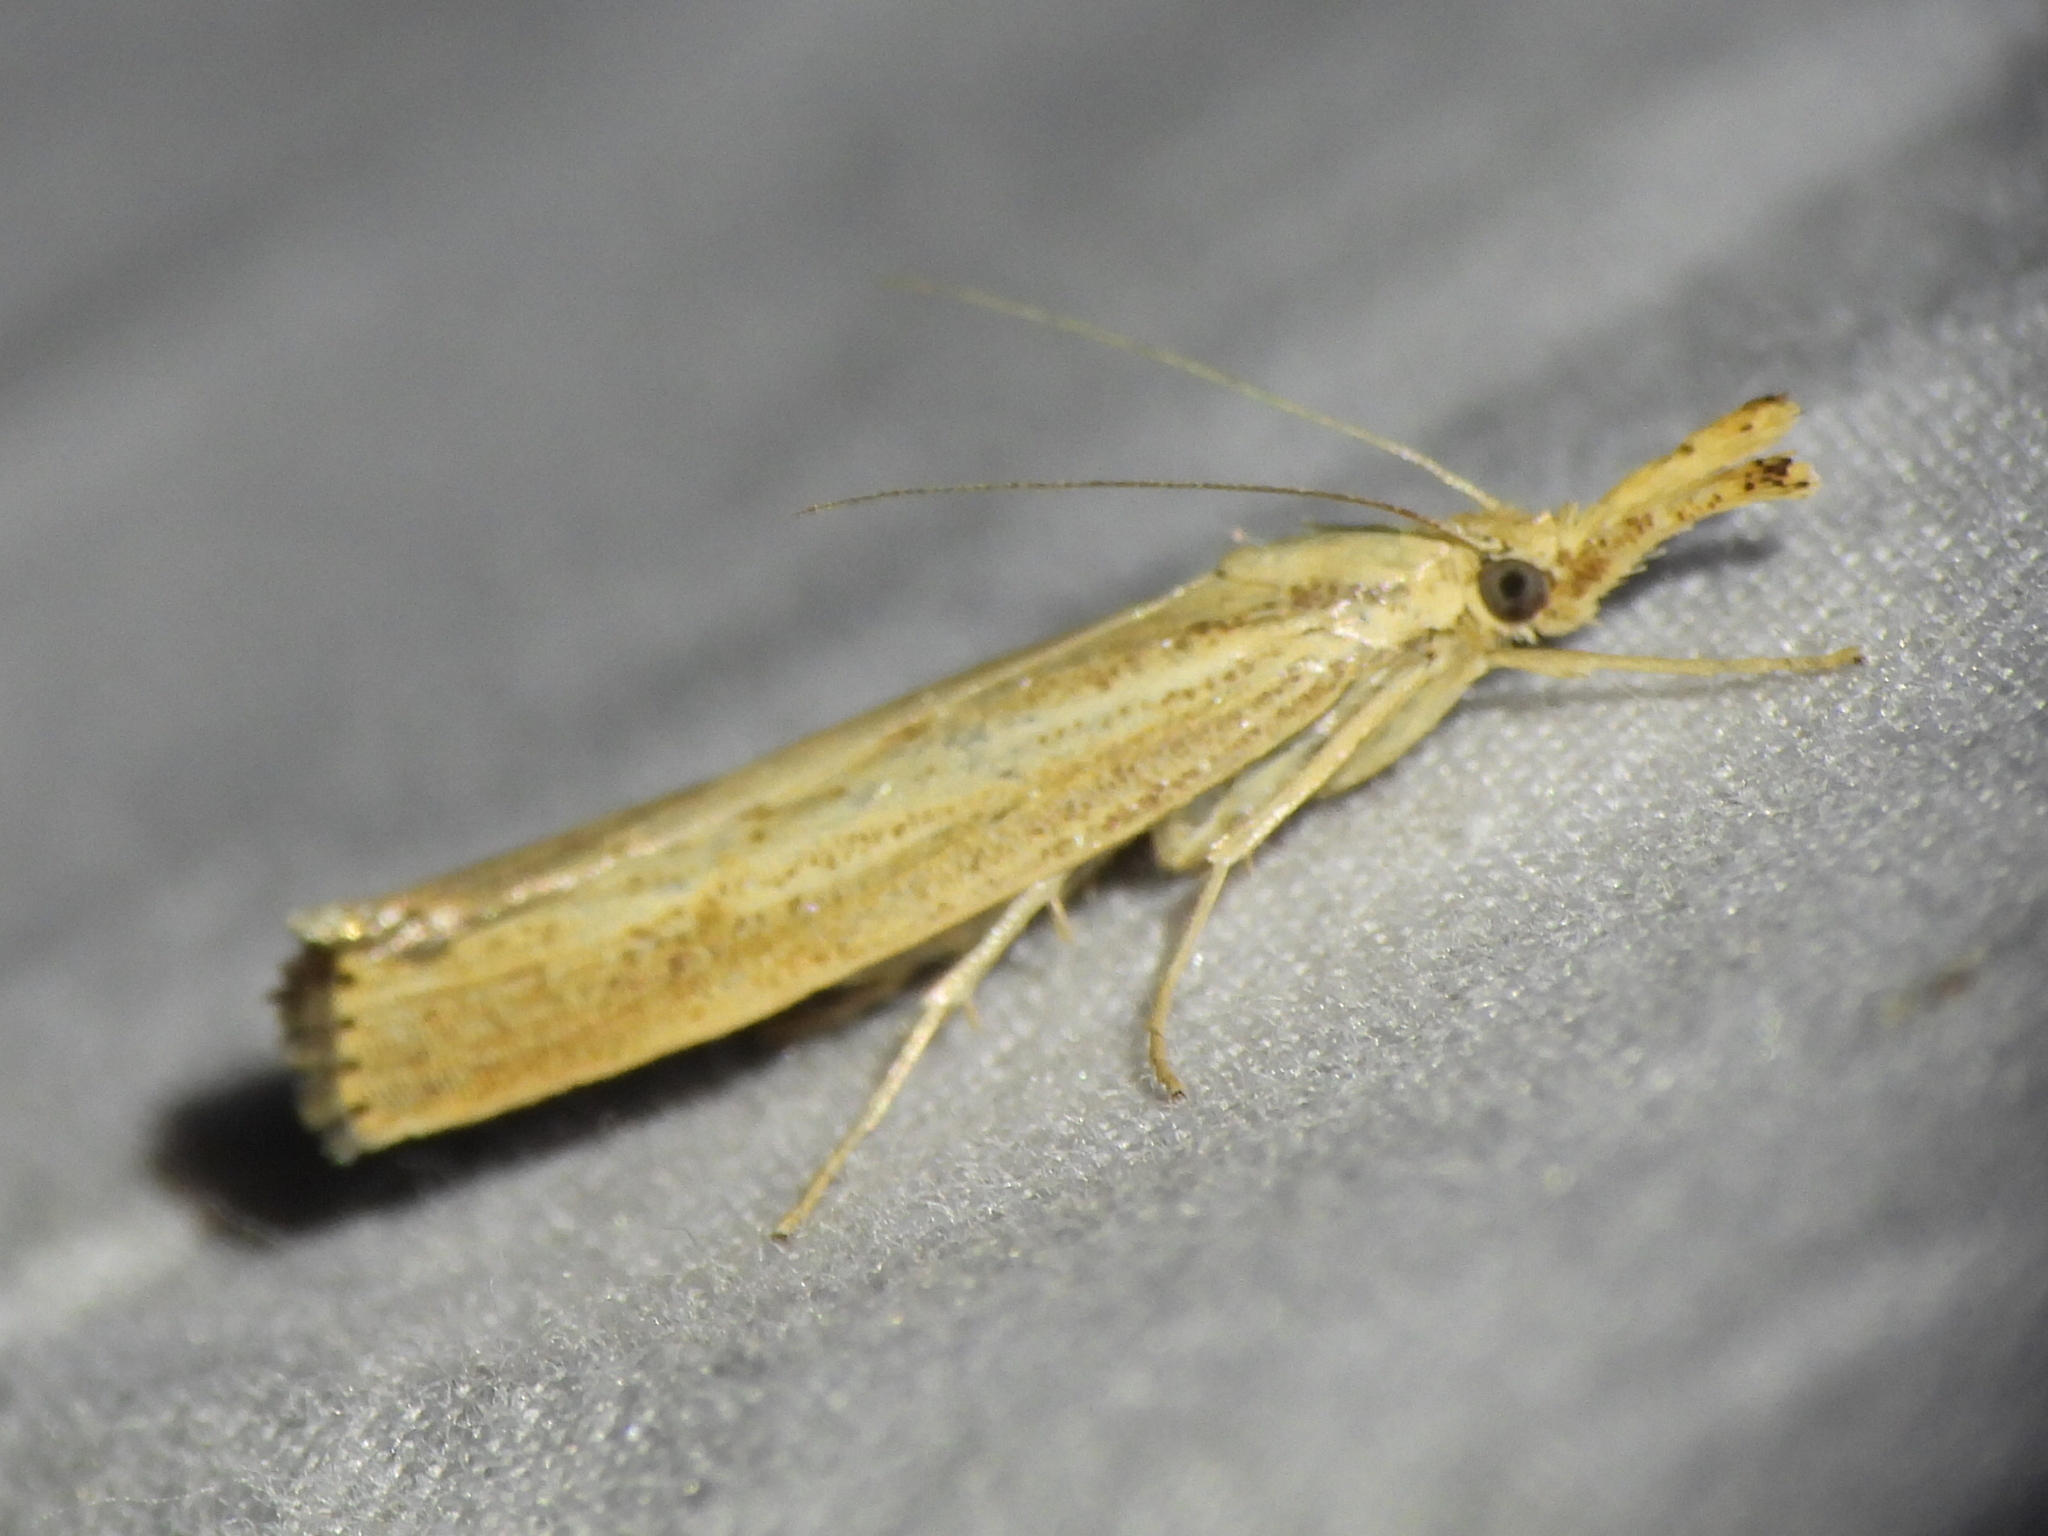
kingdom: Animalia
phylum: Arthropoda
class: Insecta
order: Lepidoptera
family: Crambidae
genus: Agriphila
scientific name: Agriphila vulgivagellus
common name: Vagabond crambus moth
